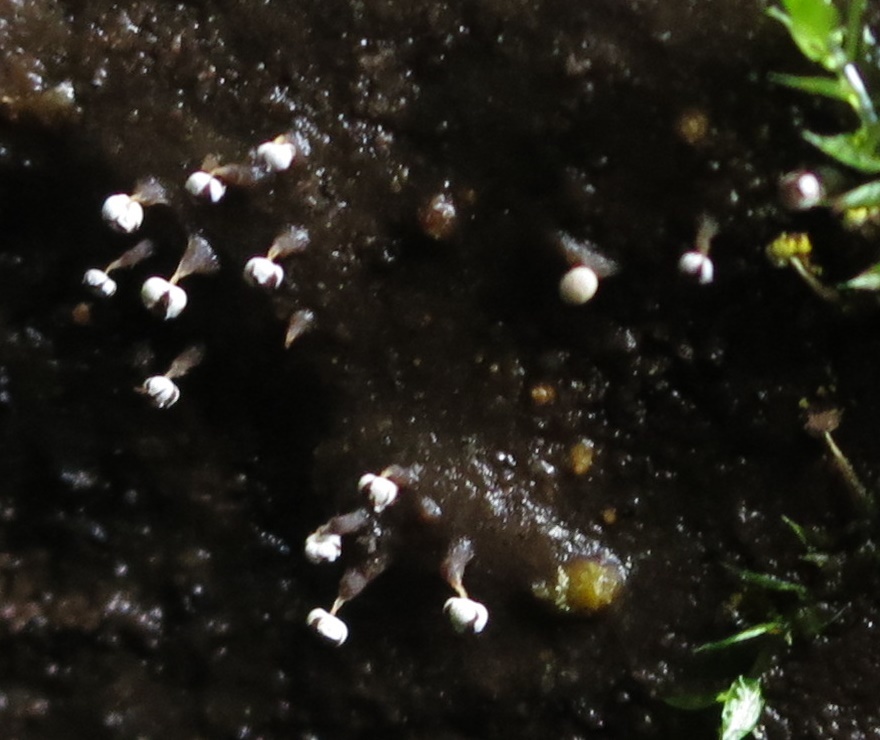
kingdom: Protozoa
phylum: Mycetozoa
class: Myxomycetes
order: Physarales
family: Physaraceae
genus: Physarum
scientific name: Physarum viride
